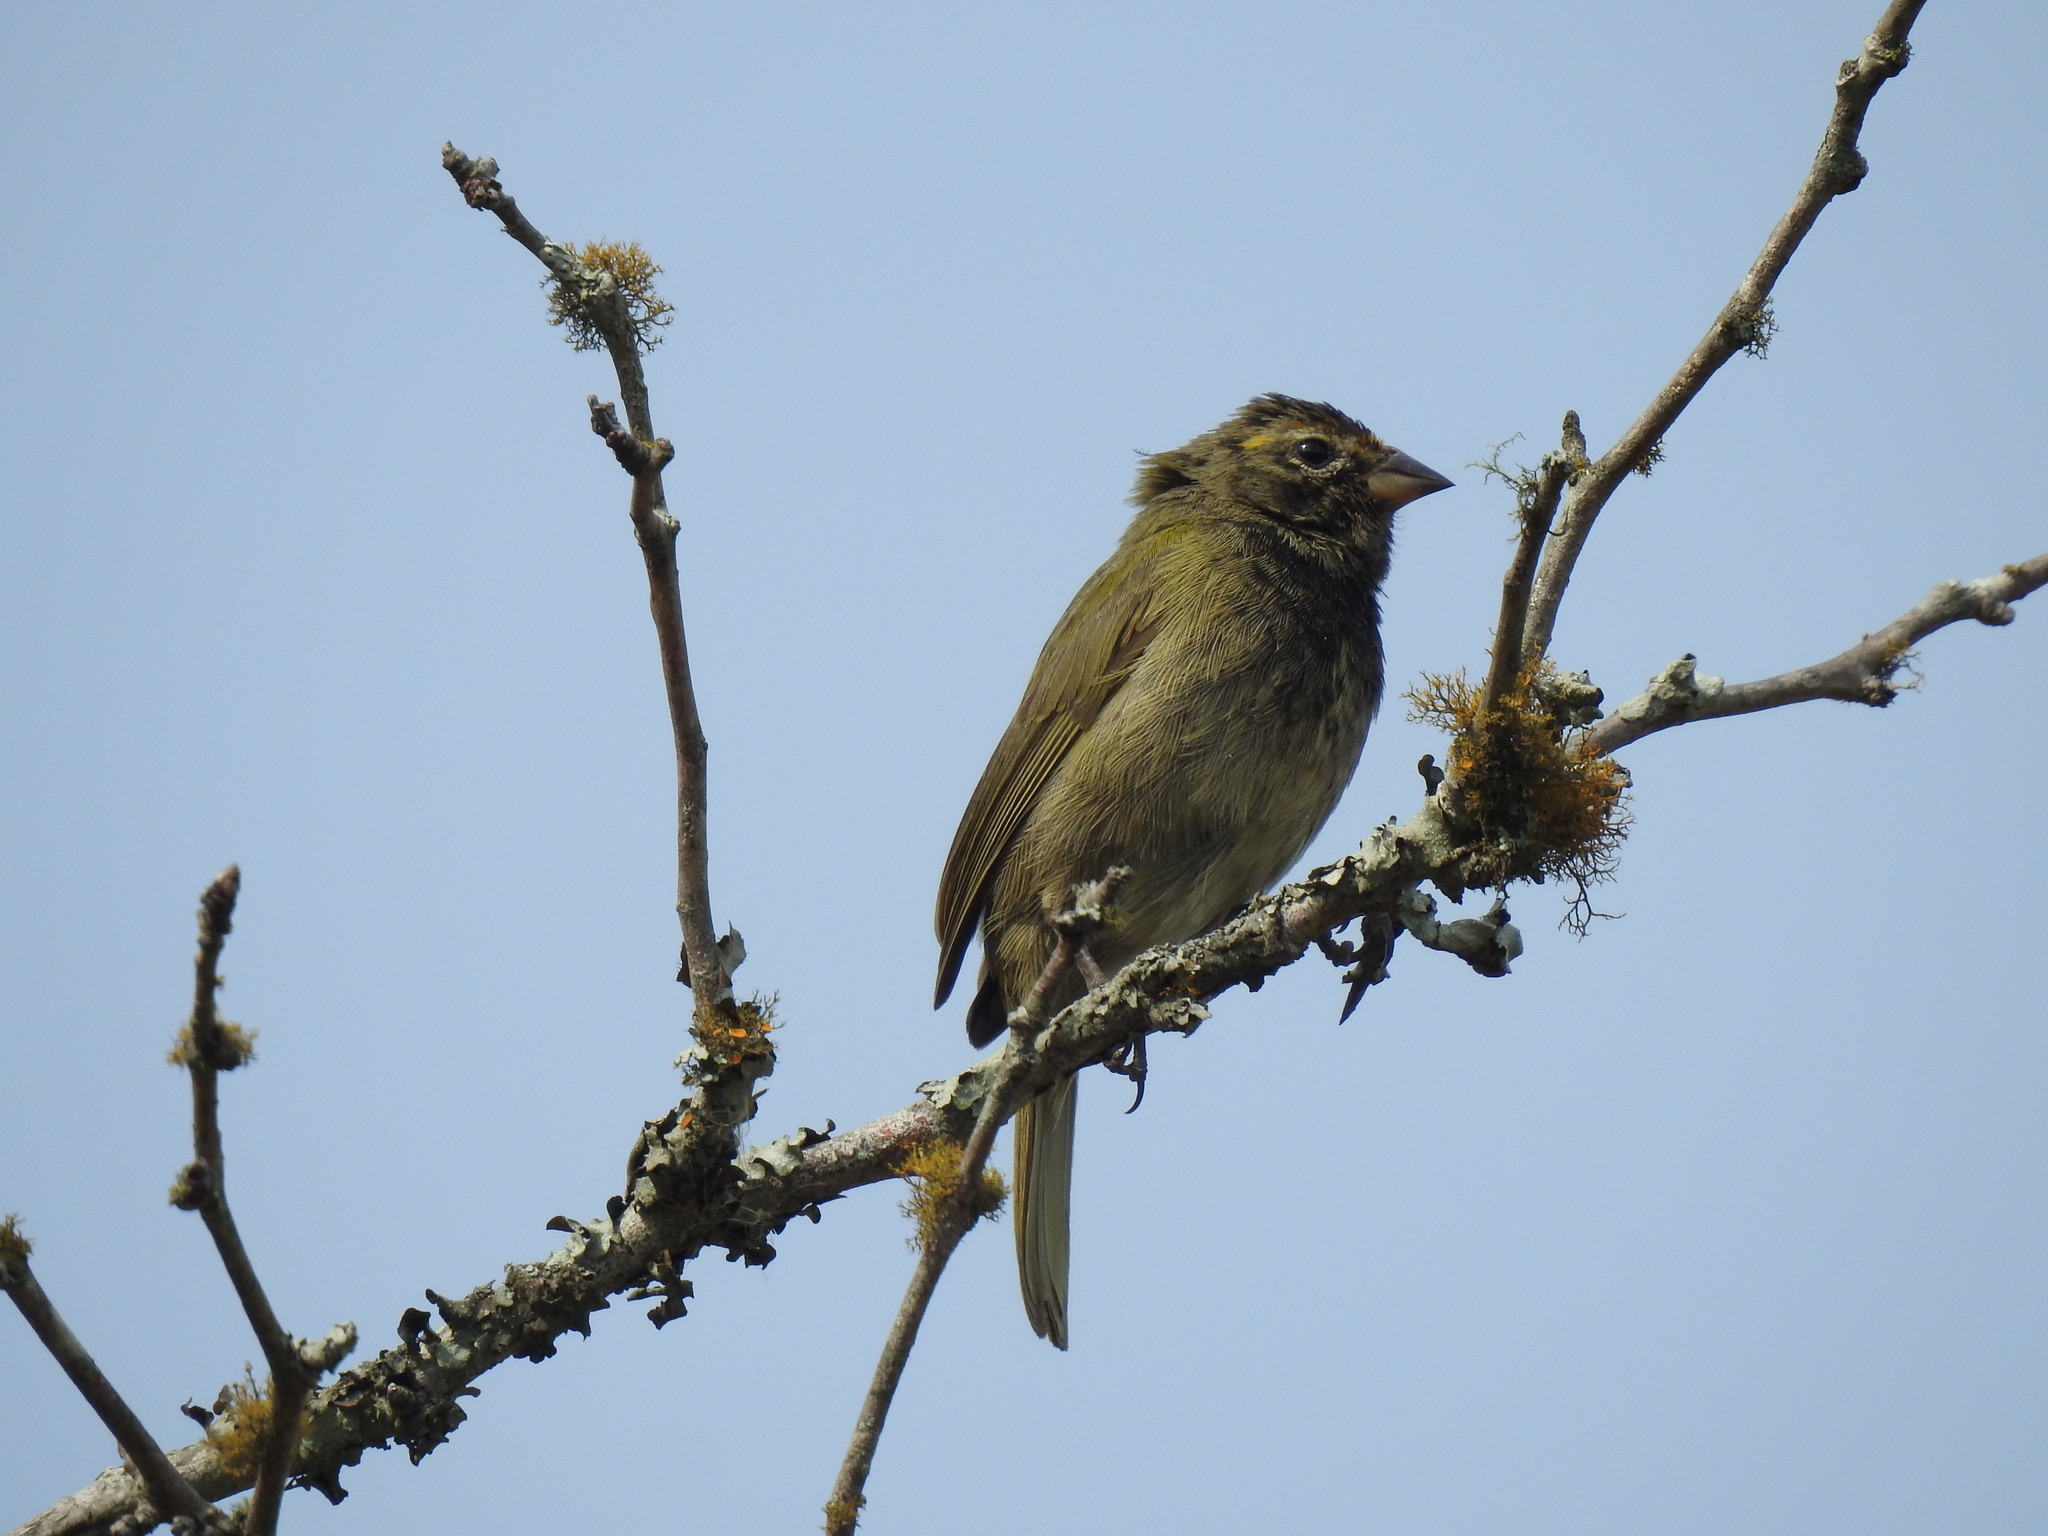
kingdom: Animalia
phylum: Chordata
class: Aves
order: Passeriformes
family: Thraupidae
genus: Tiaris
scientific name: Tiaris olivaceus
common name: Yellow-faced grassquit
